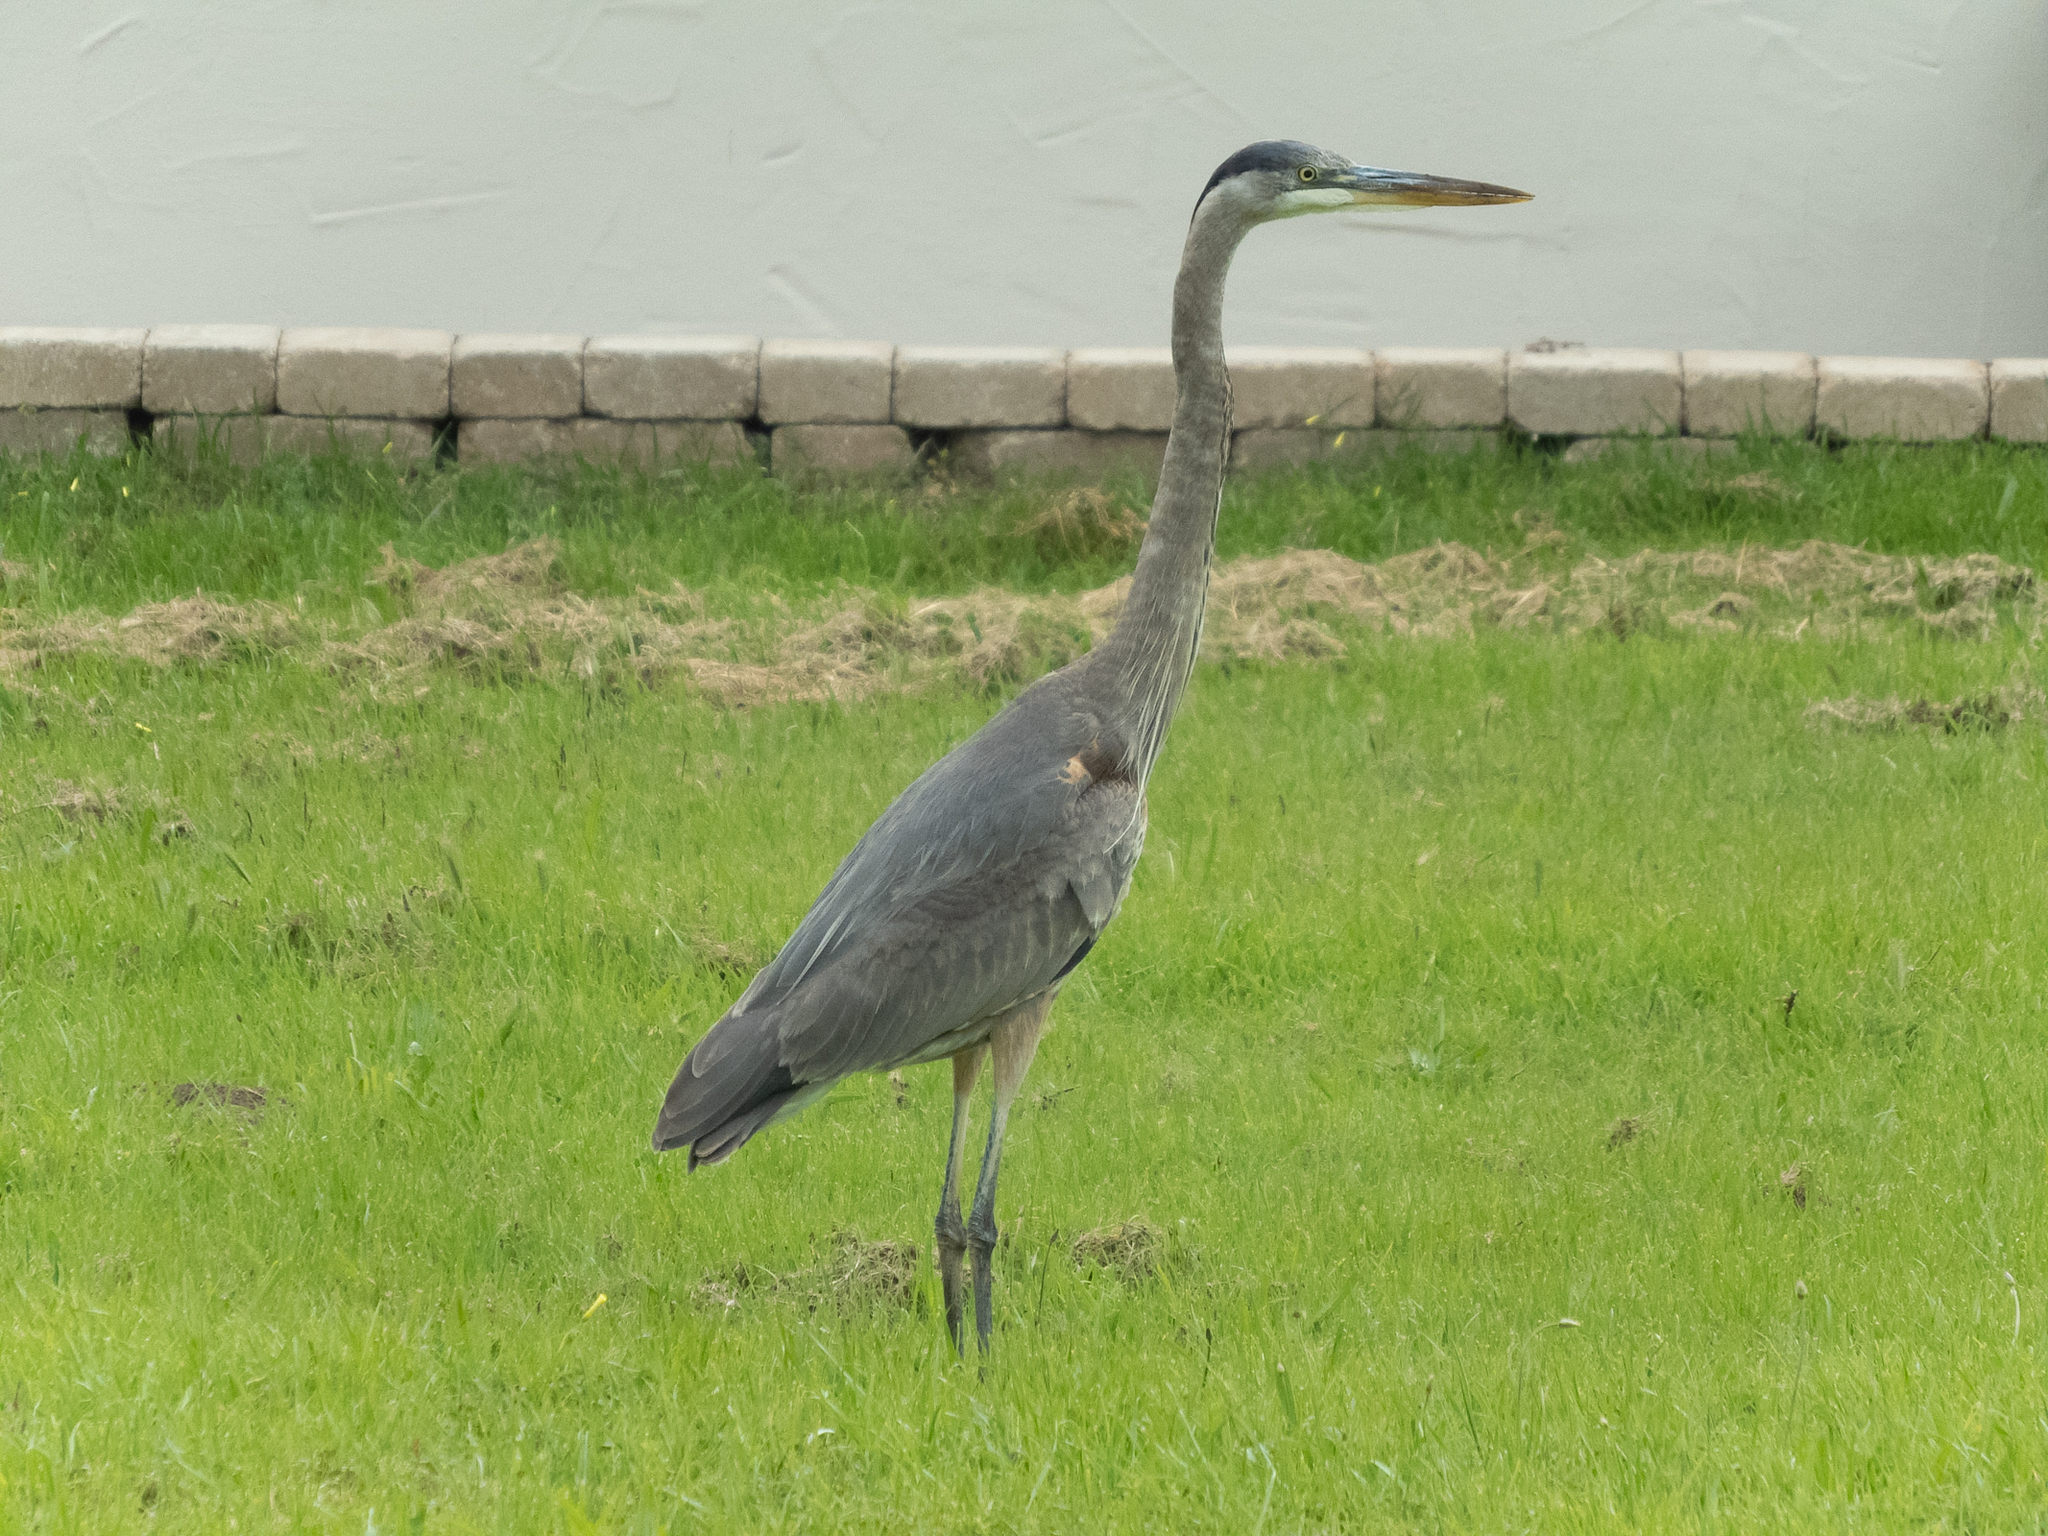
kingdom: Animalia
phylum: Chordata
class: Aves
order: Pelecaniformes
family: Ardeidae
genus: Ardea
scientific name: Ardea herodias
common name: Great blue heron
